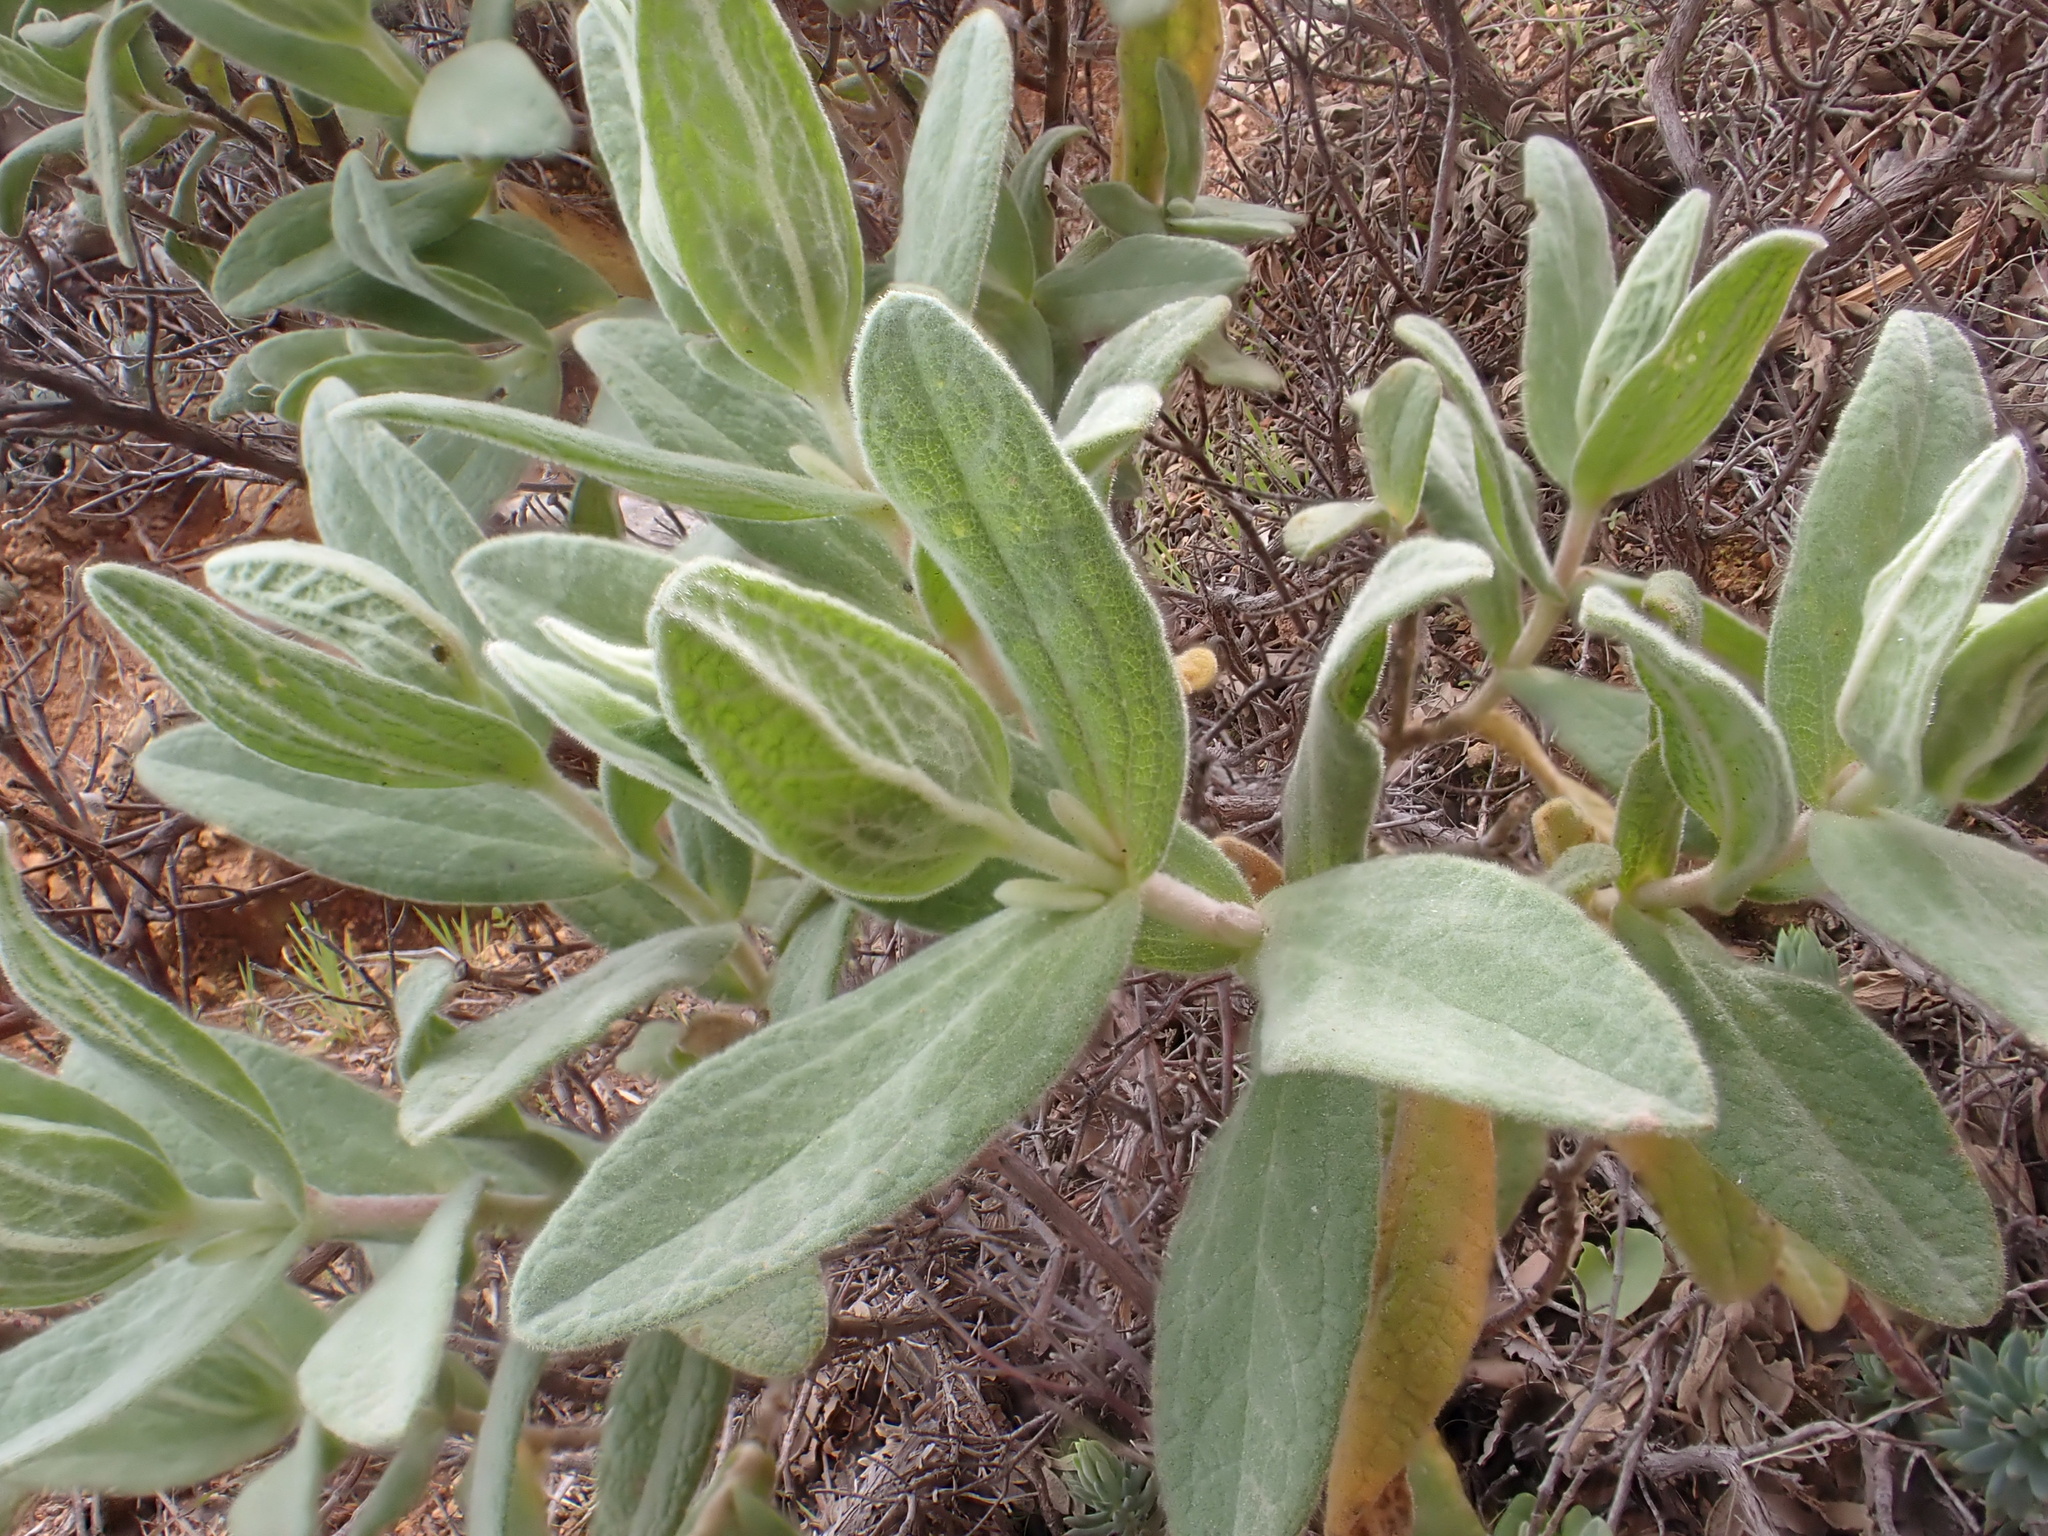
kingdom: Plantae
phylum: Tracheophyta
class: Magnoliopsida
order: Malvales
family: Cistaceae
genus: Cistus
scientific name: Cistus albidus
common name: White-leaf rock-rose
